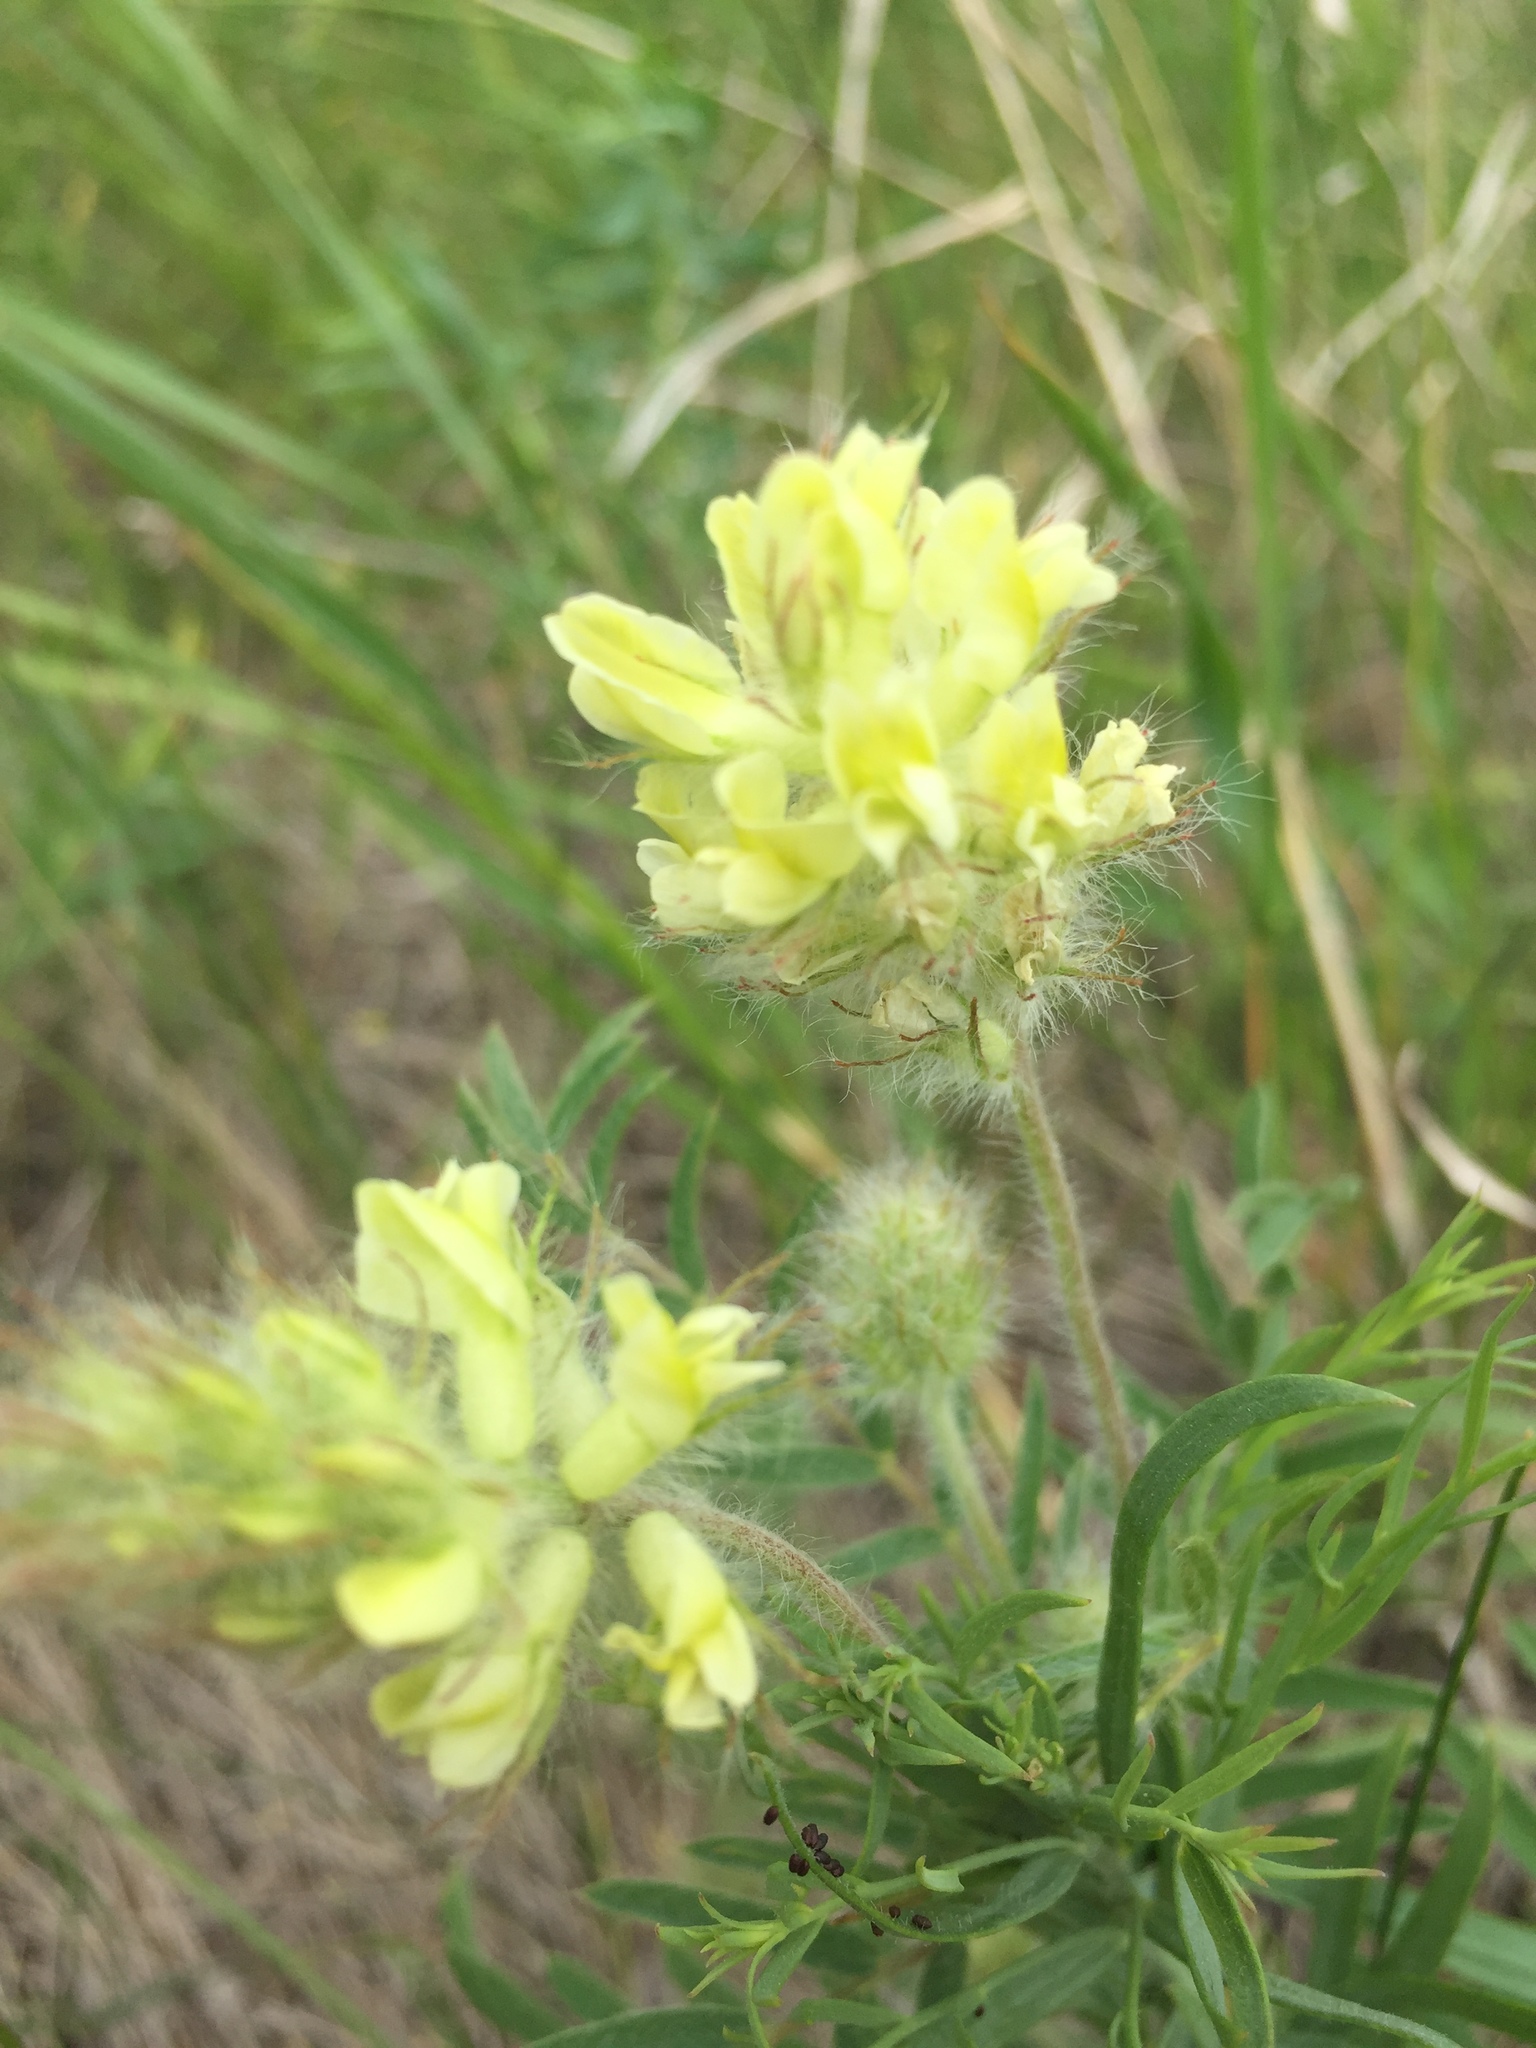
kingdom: Plantae
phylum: Tracheophyta
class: Magnoliopsida
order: Fabales
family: Fabaceae
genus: Oxytropis
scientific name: Oxytropis pilosa
